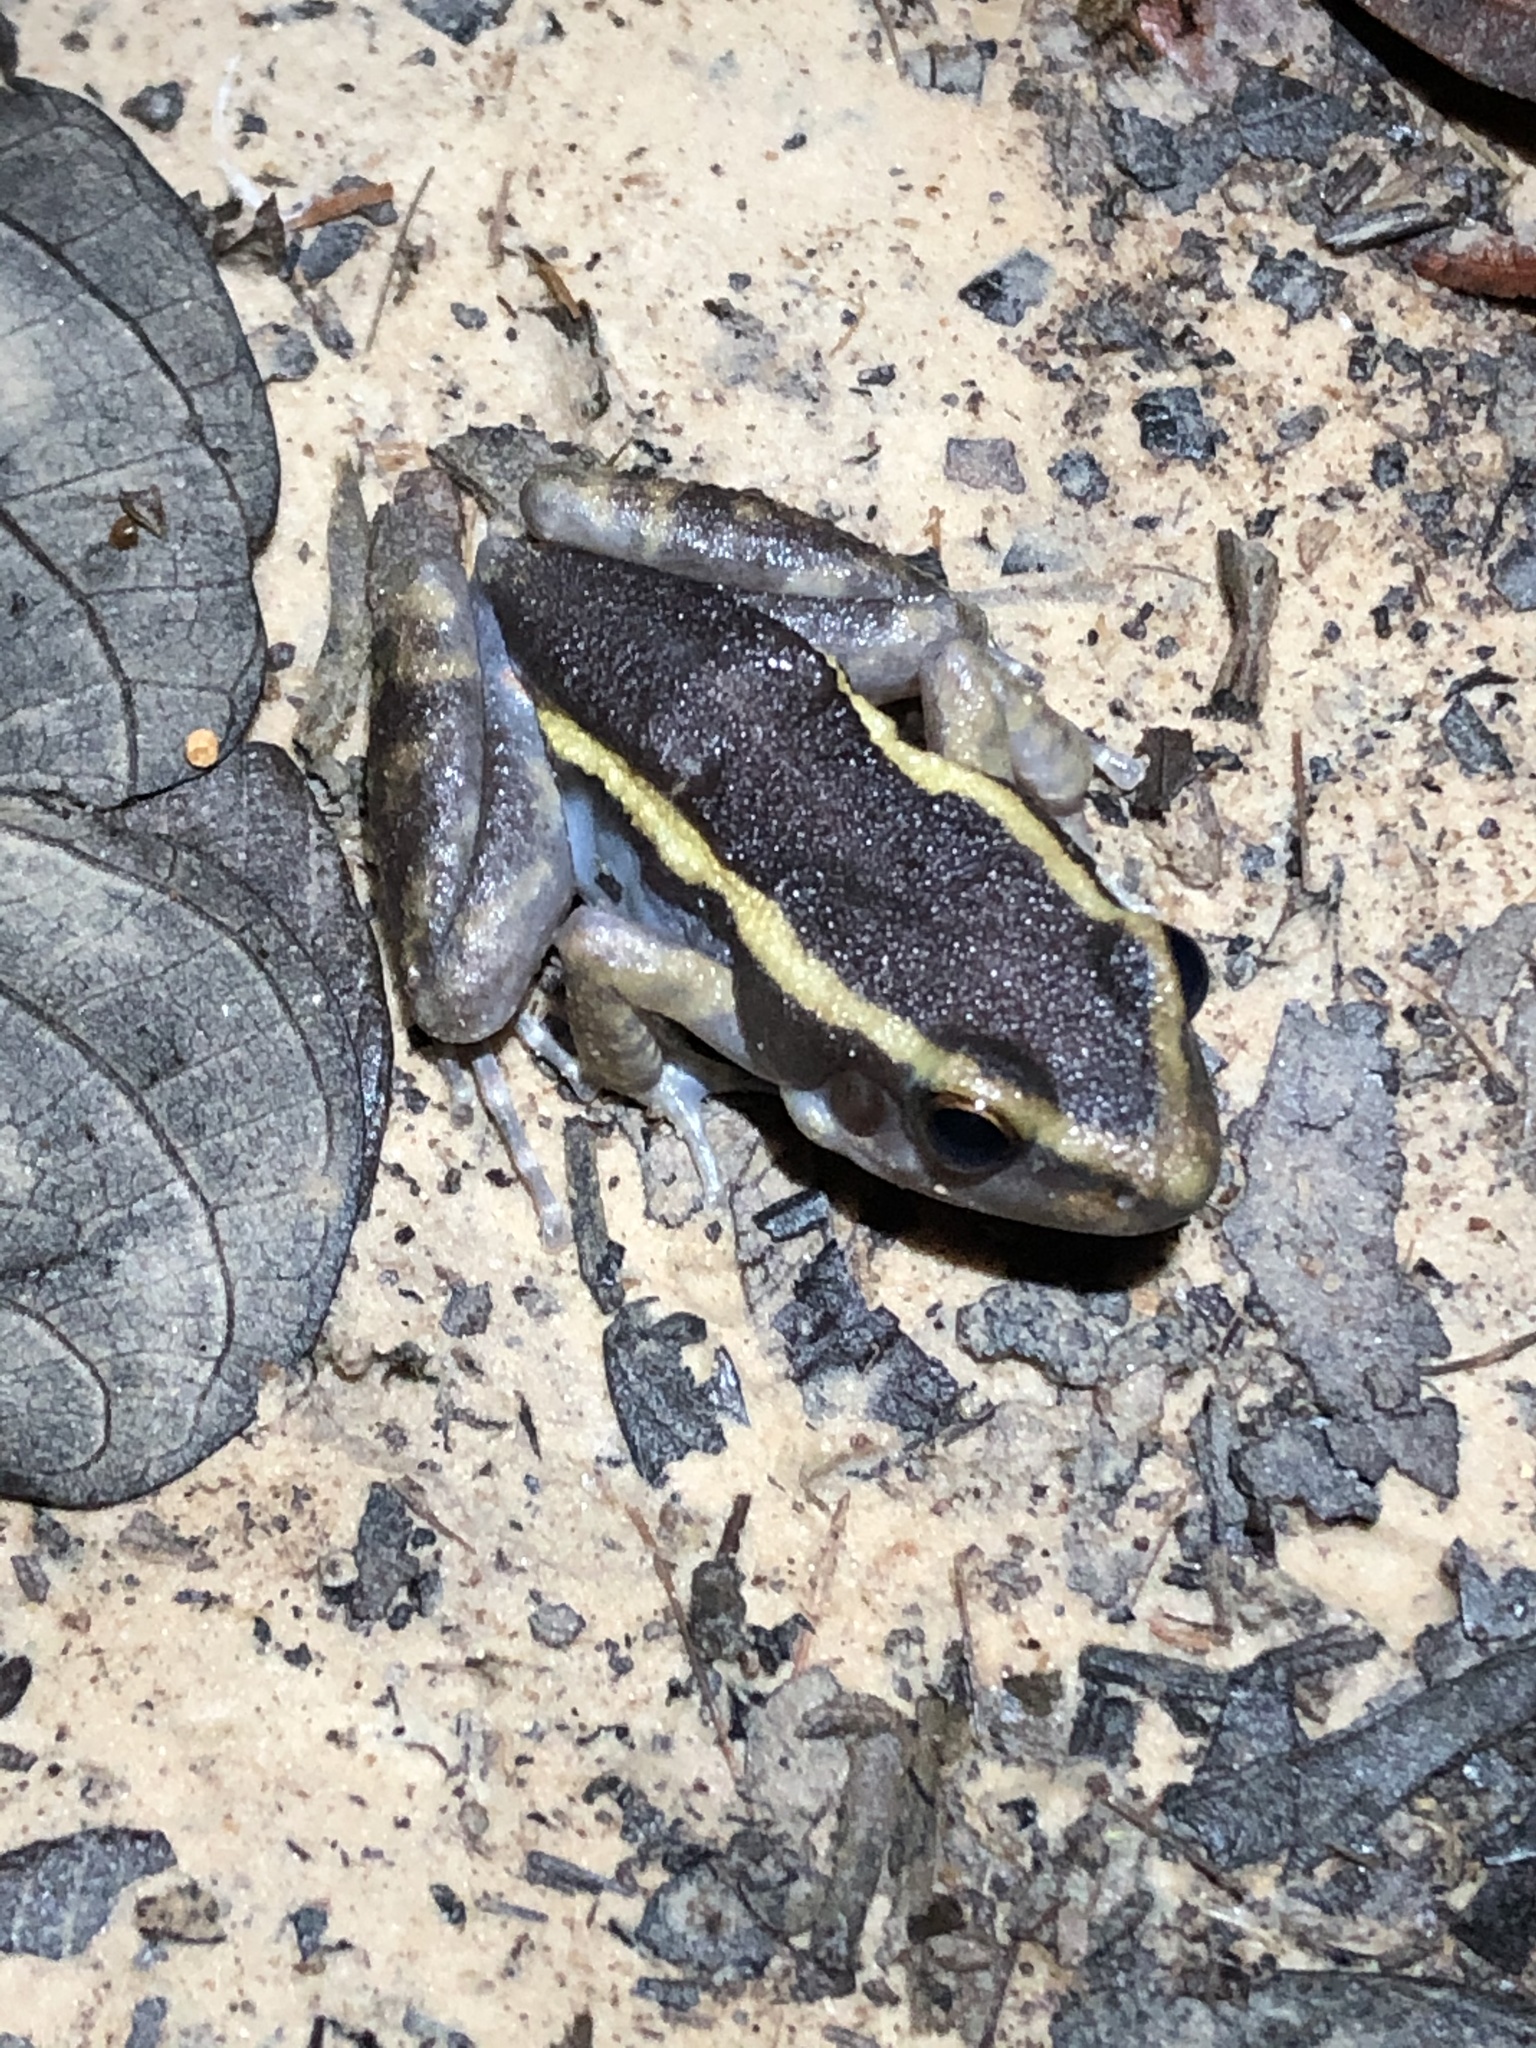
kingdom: Animalia
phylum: Chordata
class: Amphibia
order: Anura
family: Leptodactylidae
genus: Lithodytes
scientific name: Lithodytes lineatus
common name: Gold-striped frog
